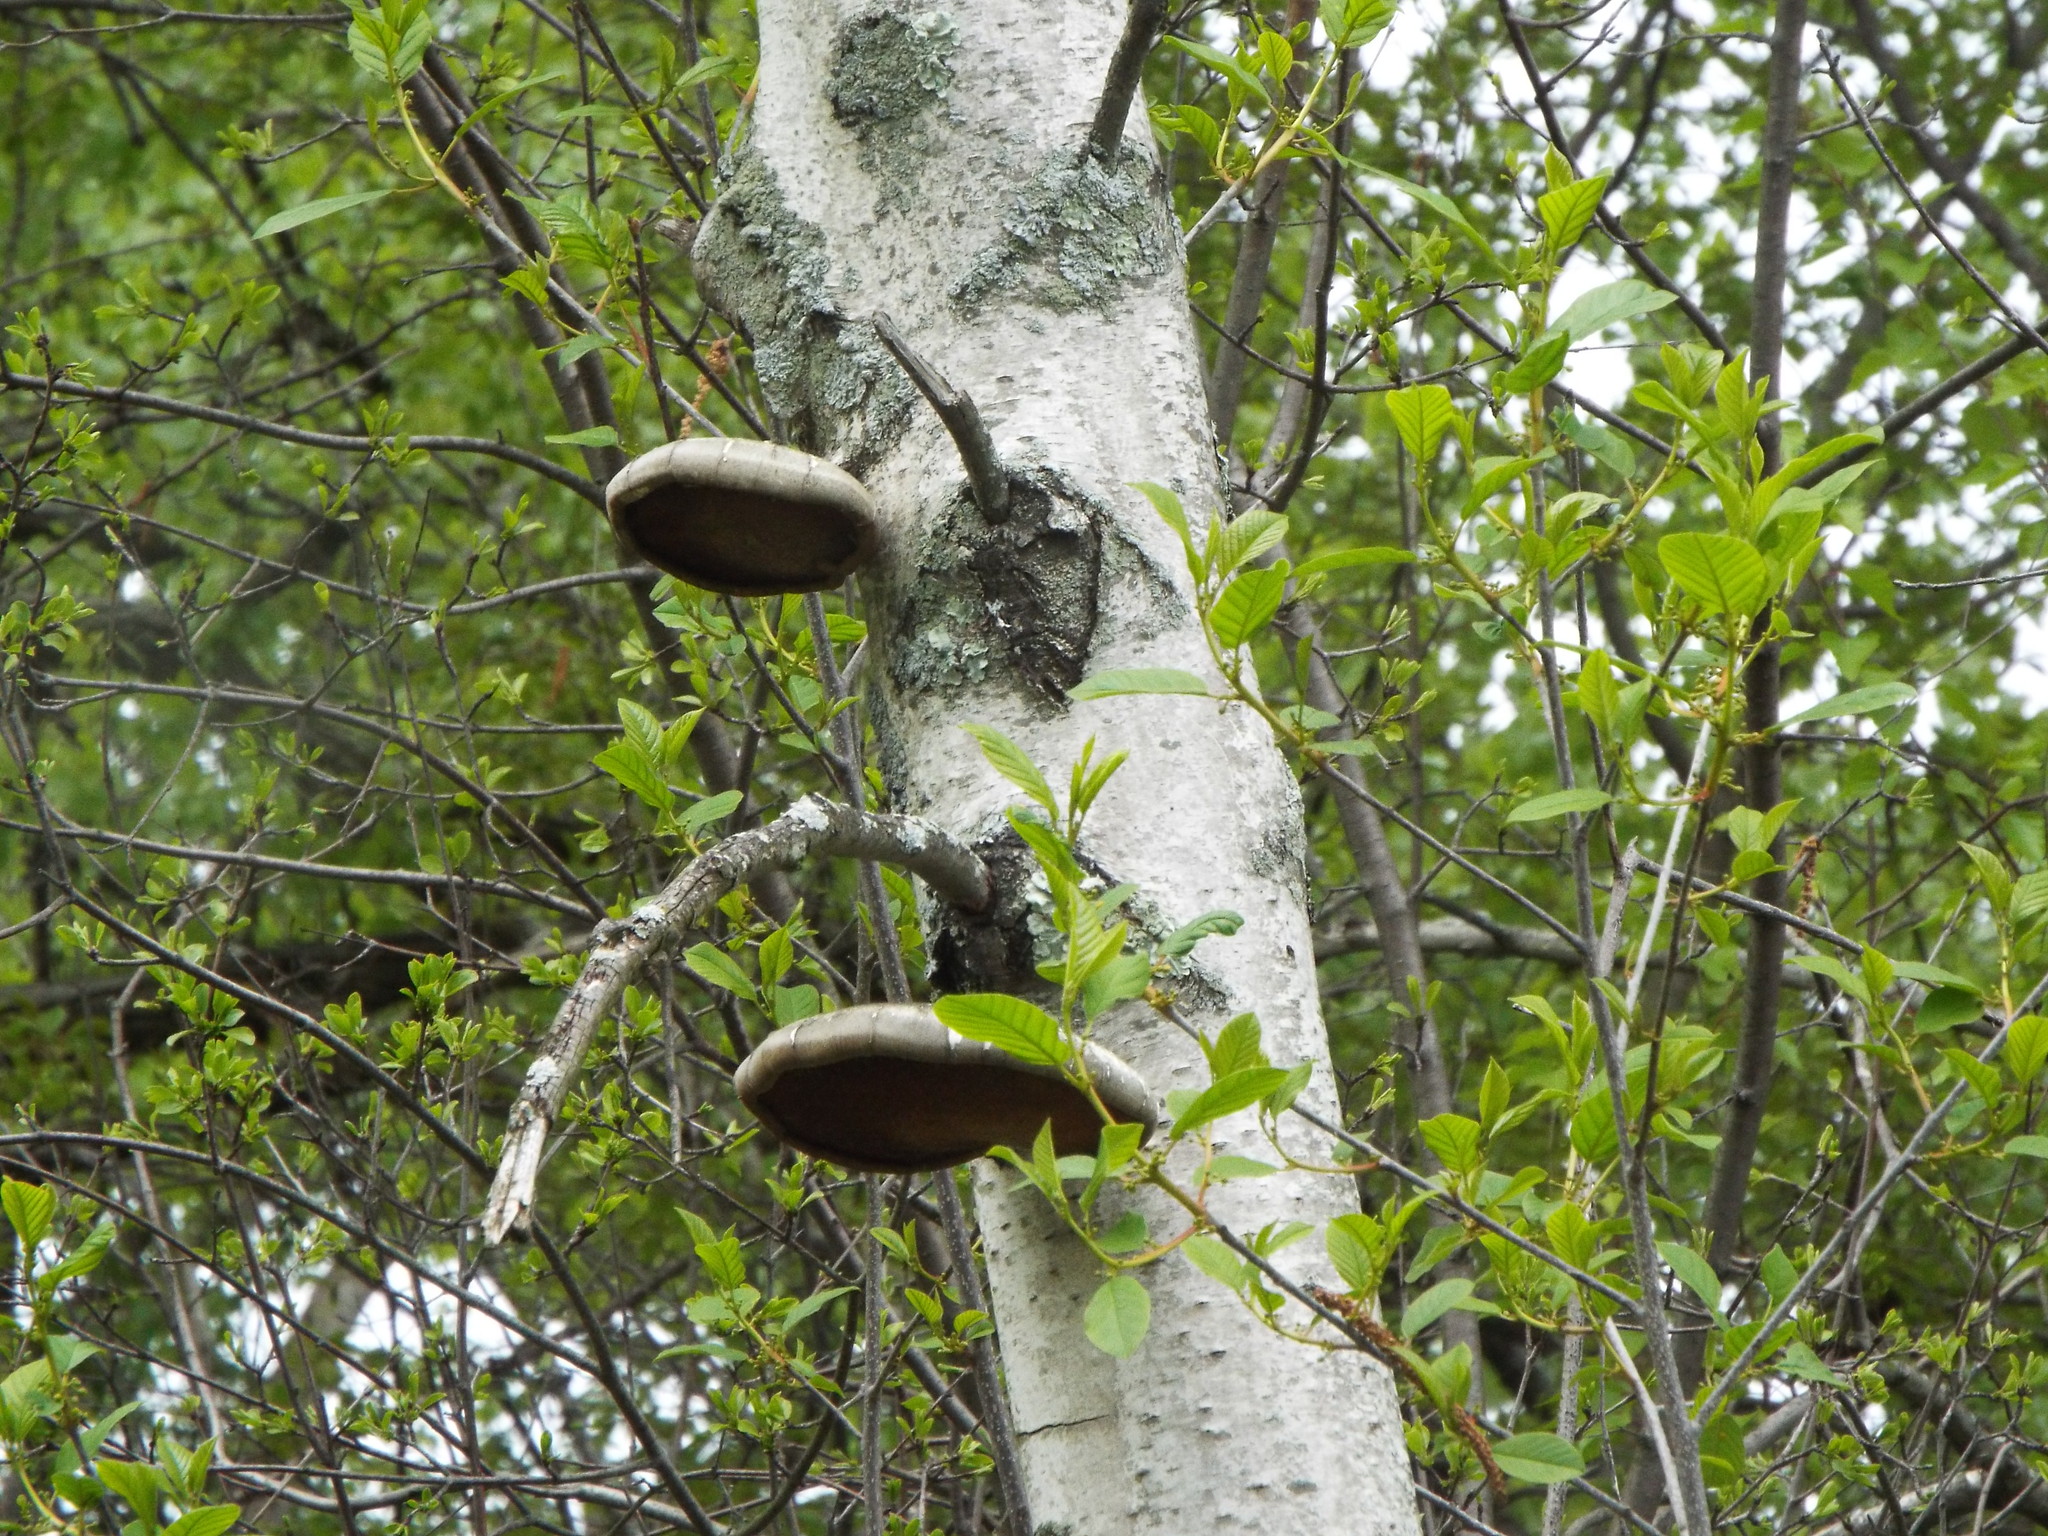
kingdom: Fungi
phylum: Basidiomycota
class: Agaricomycetes
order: Polyporales
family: Fomitopsidaceae
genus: Fomitopsis
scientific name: Fomitopsis betulina
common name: Birch polypore
